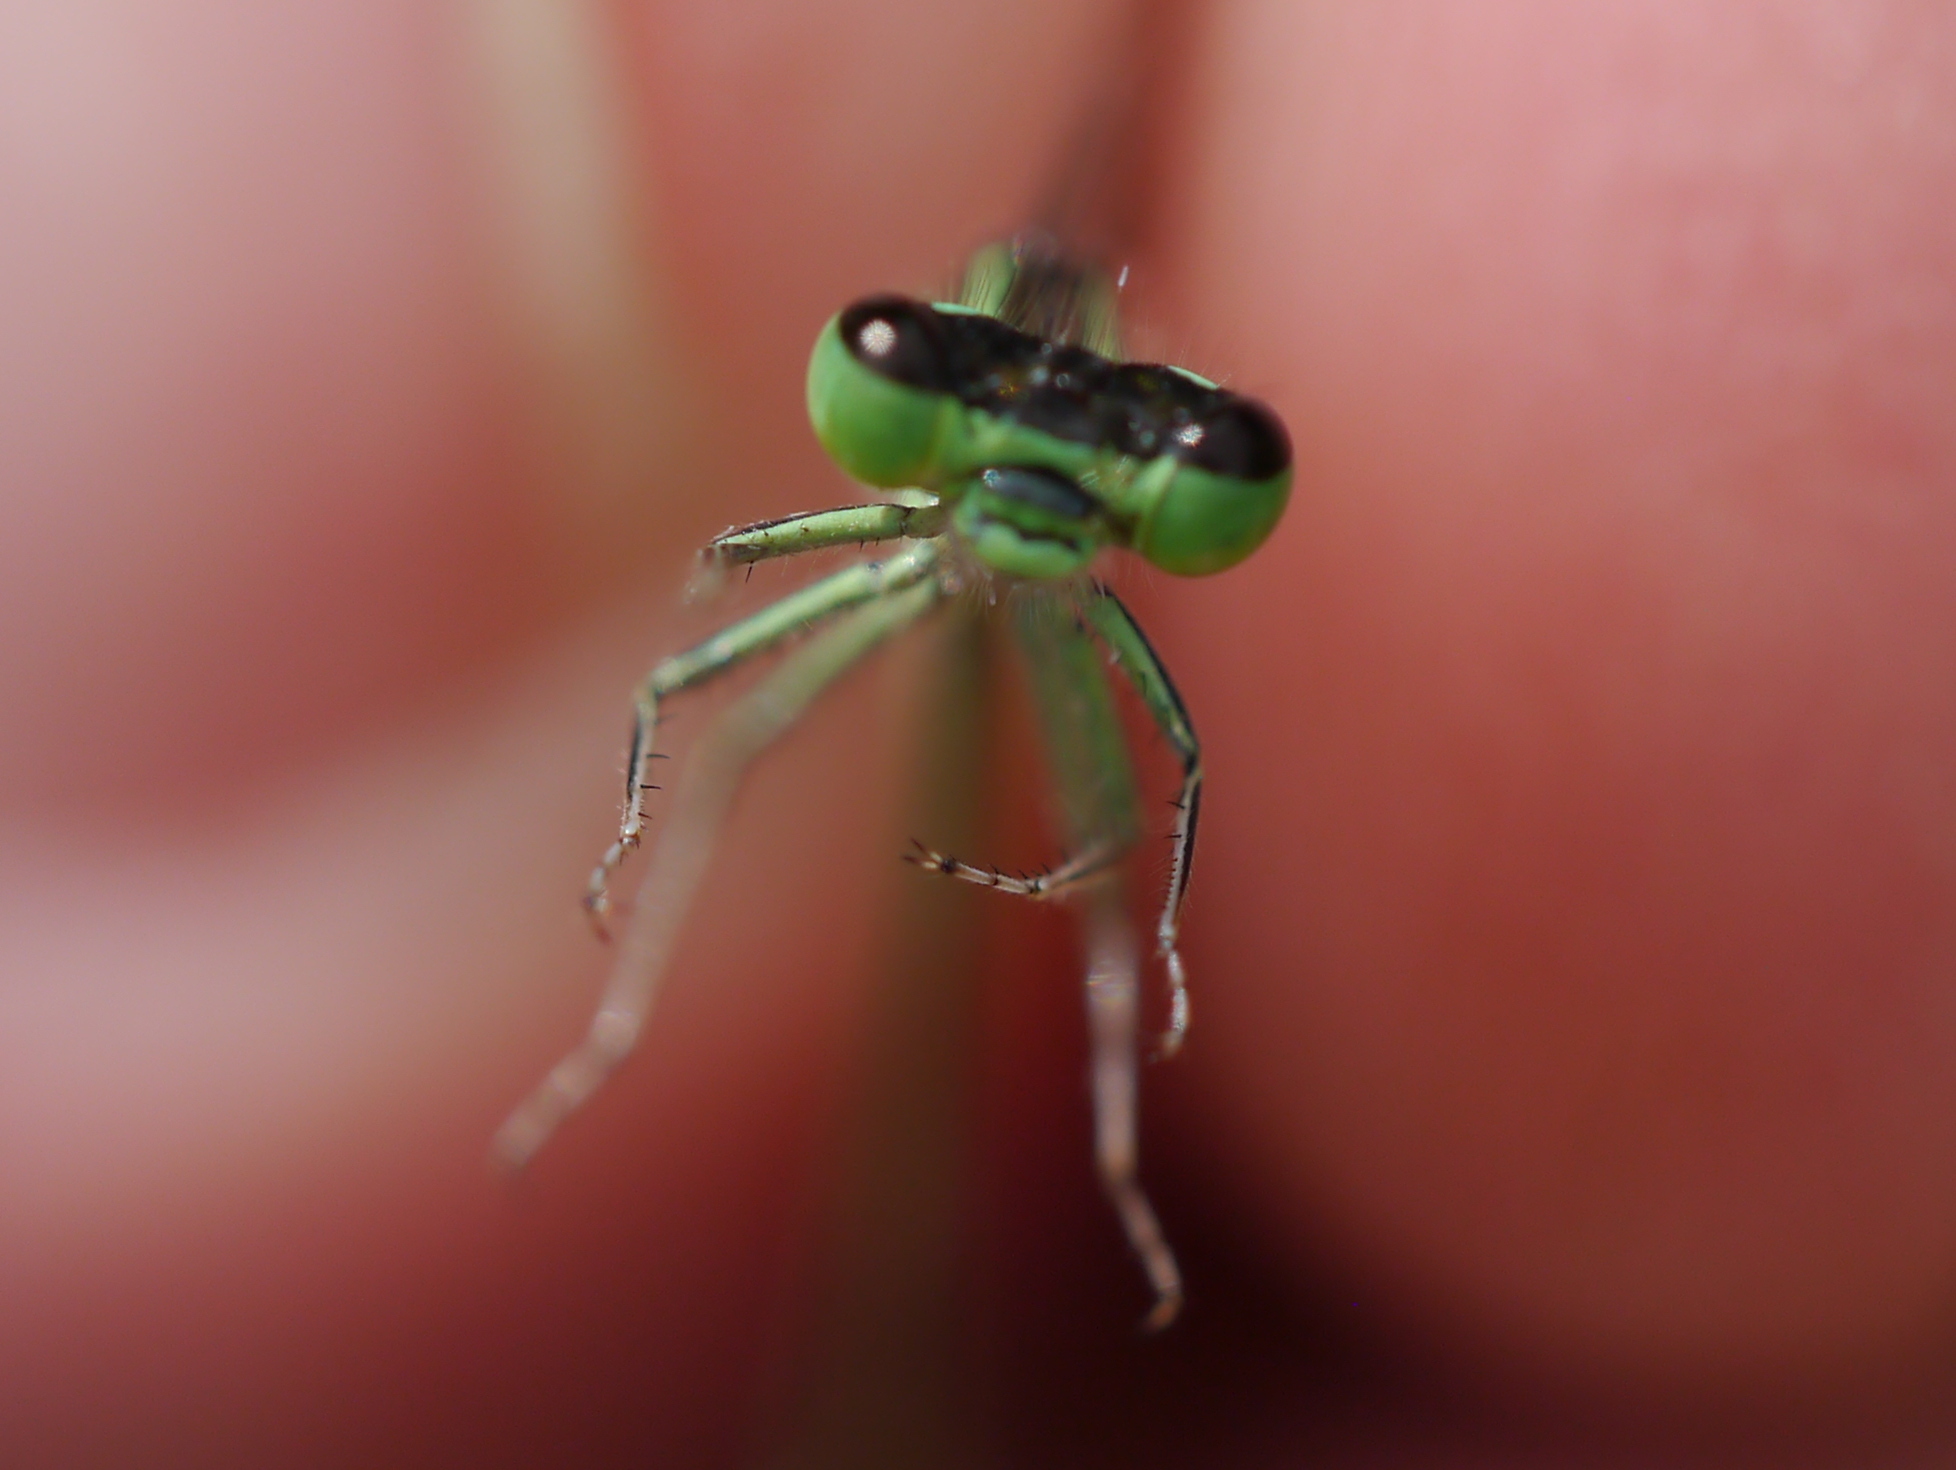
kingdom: Animalia
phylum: Arthropoda
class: Insecta
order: Odonata
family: Coenagrionidae
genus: Ischnura
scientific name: Ischnura verticalis
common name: Eastern forktail
